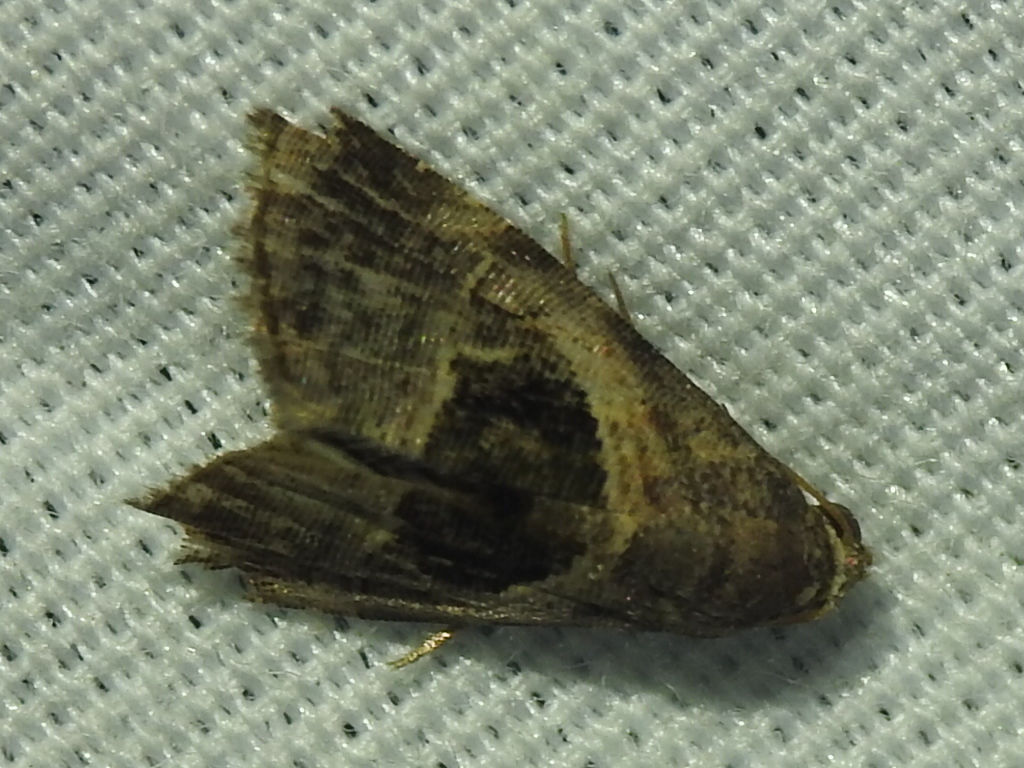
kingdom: Animalia
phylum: Arthropoda
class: Insecta
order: Lepidoptera
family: Noctuidae
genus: Tripudia
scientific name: Tripudia quadrifera
